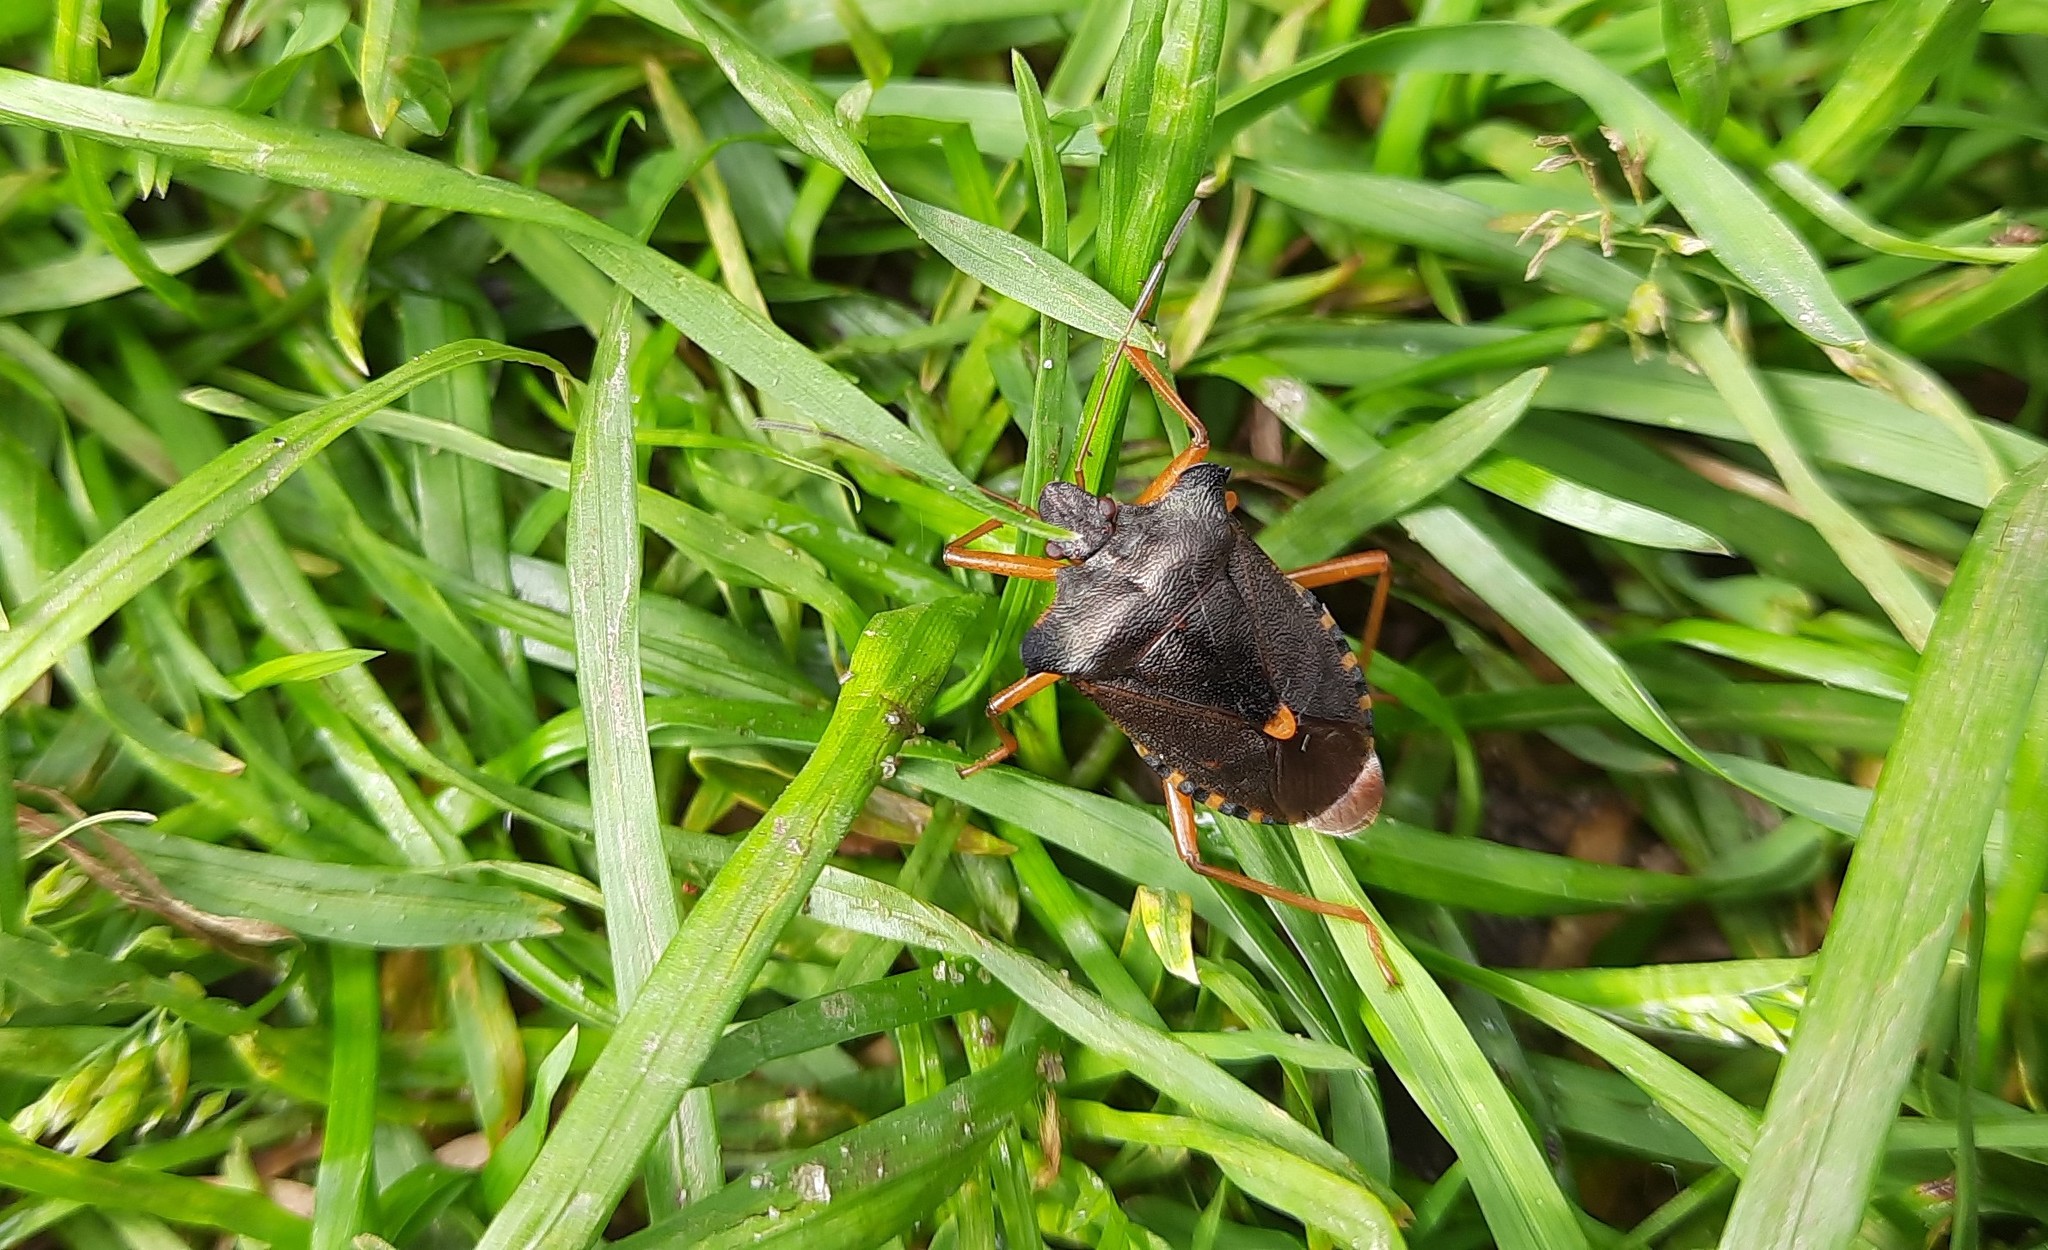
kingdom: Animalia
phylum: Arthropoda
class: Insecta
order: Hemiptera
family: Pentatomidae
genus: Pentatoma
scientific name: Pentatoma rufipes
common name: Forest bug
